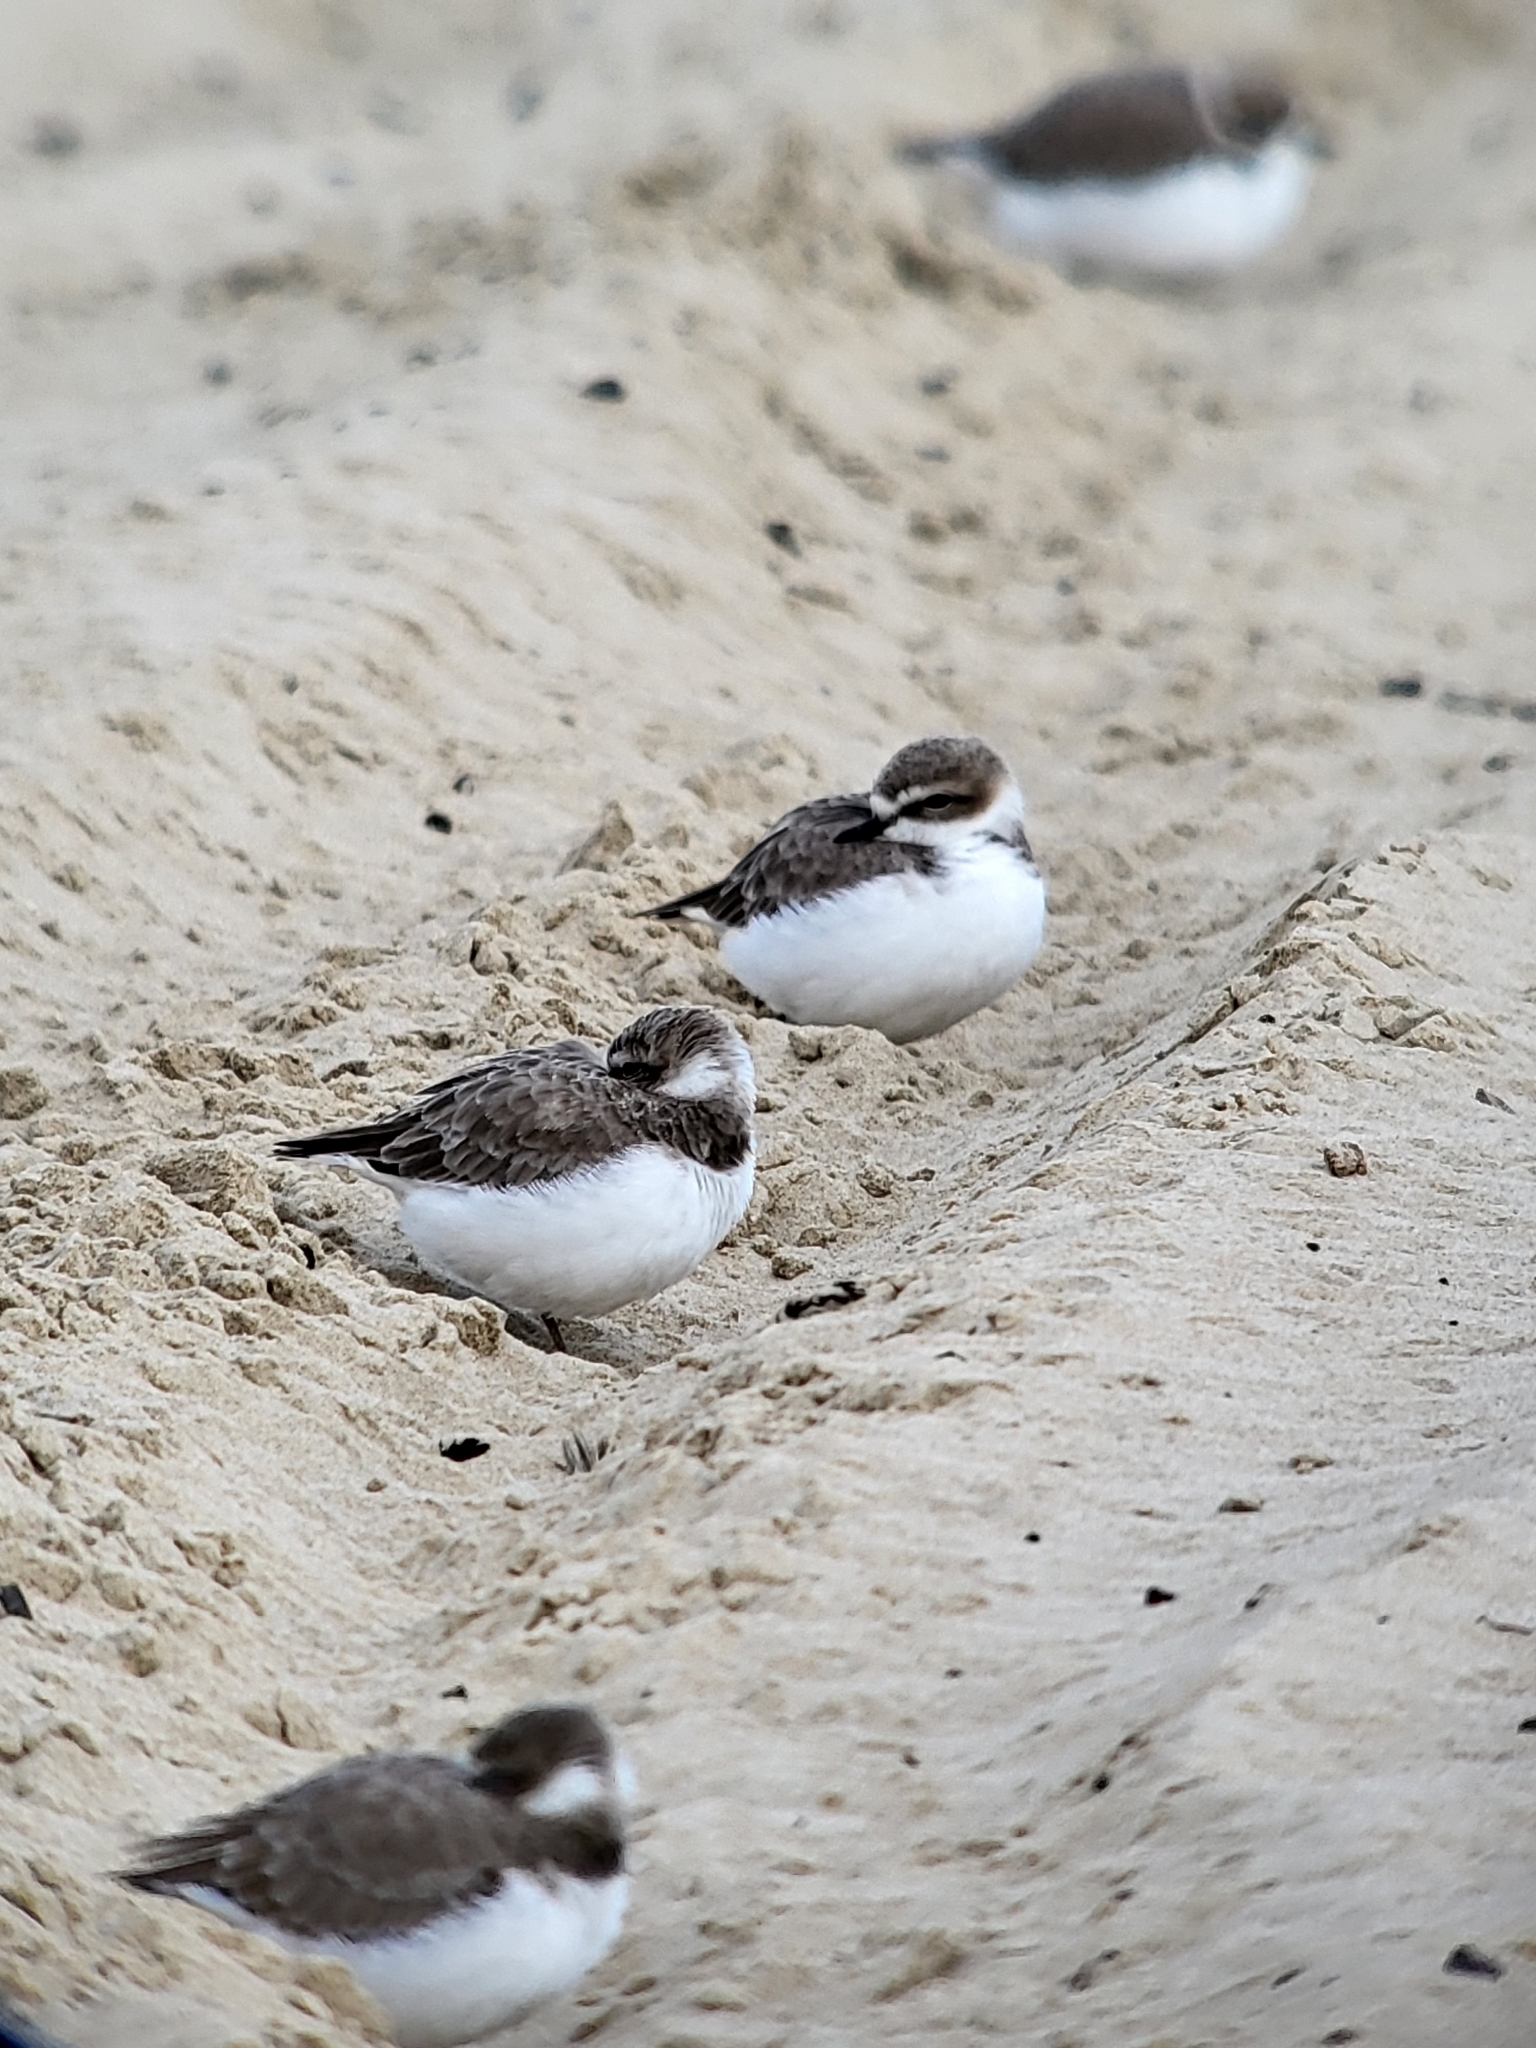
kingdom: Animalia
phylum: Chordata
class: Aves
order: Charadriiformes
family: Charadriidae
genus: Anarhynchus
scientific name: Anarhynchus
